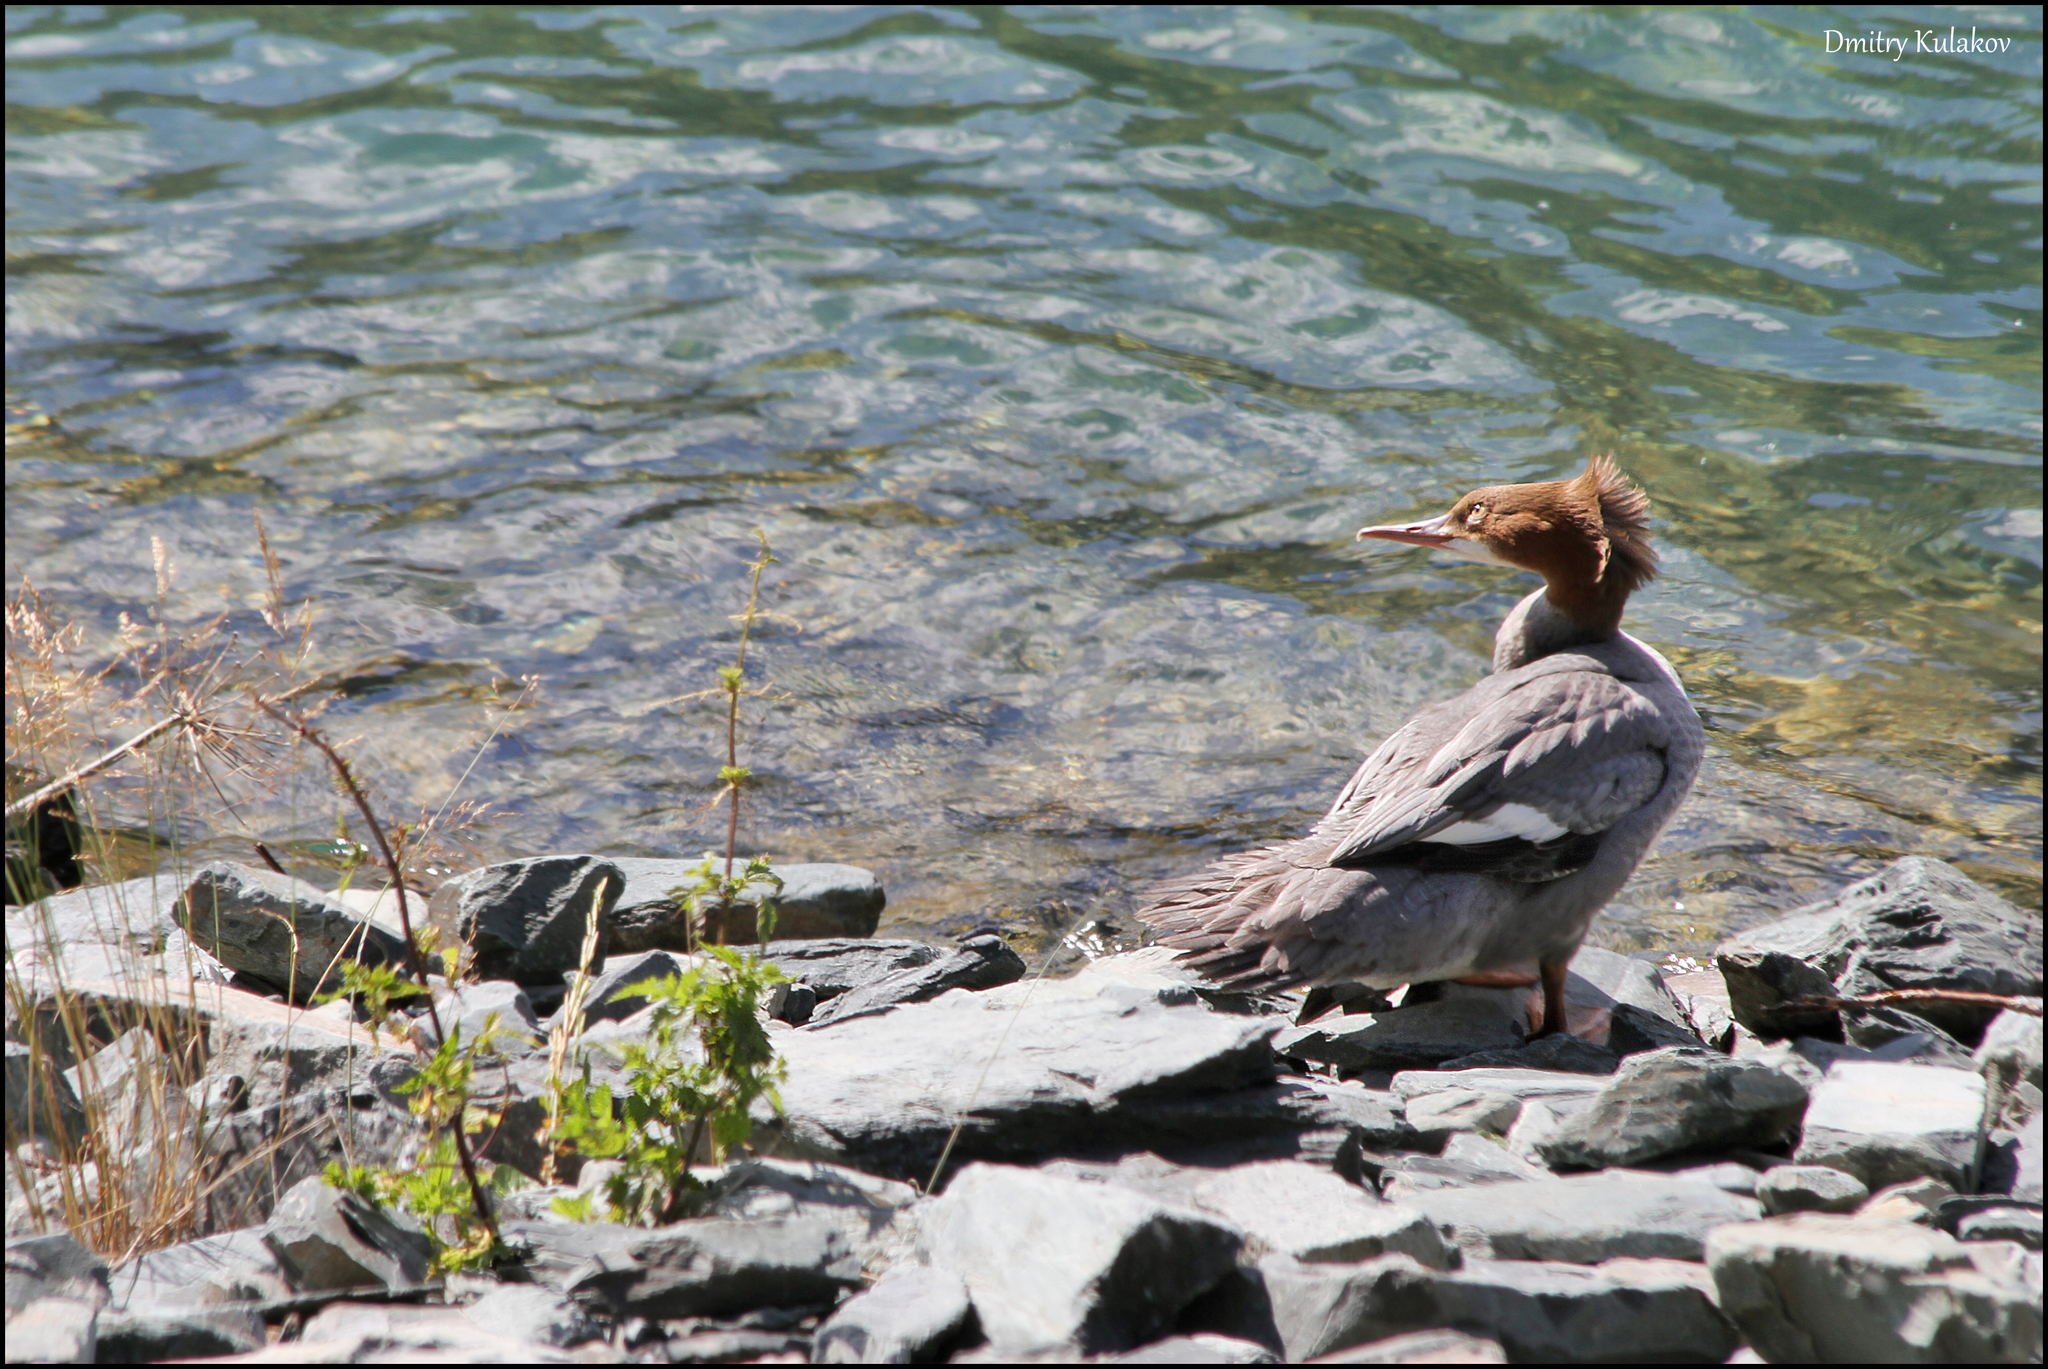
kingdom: Animalia
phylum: Chordata
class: Aves
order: Anseriformes
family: Anatidae
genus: Mergus
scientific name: Mergus merganser
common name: Common merganser
